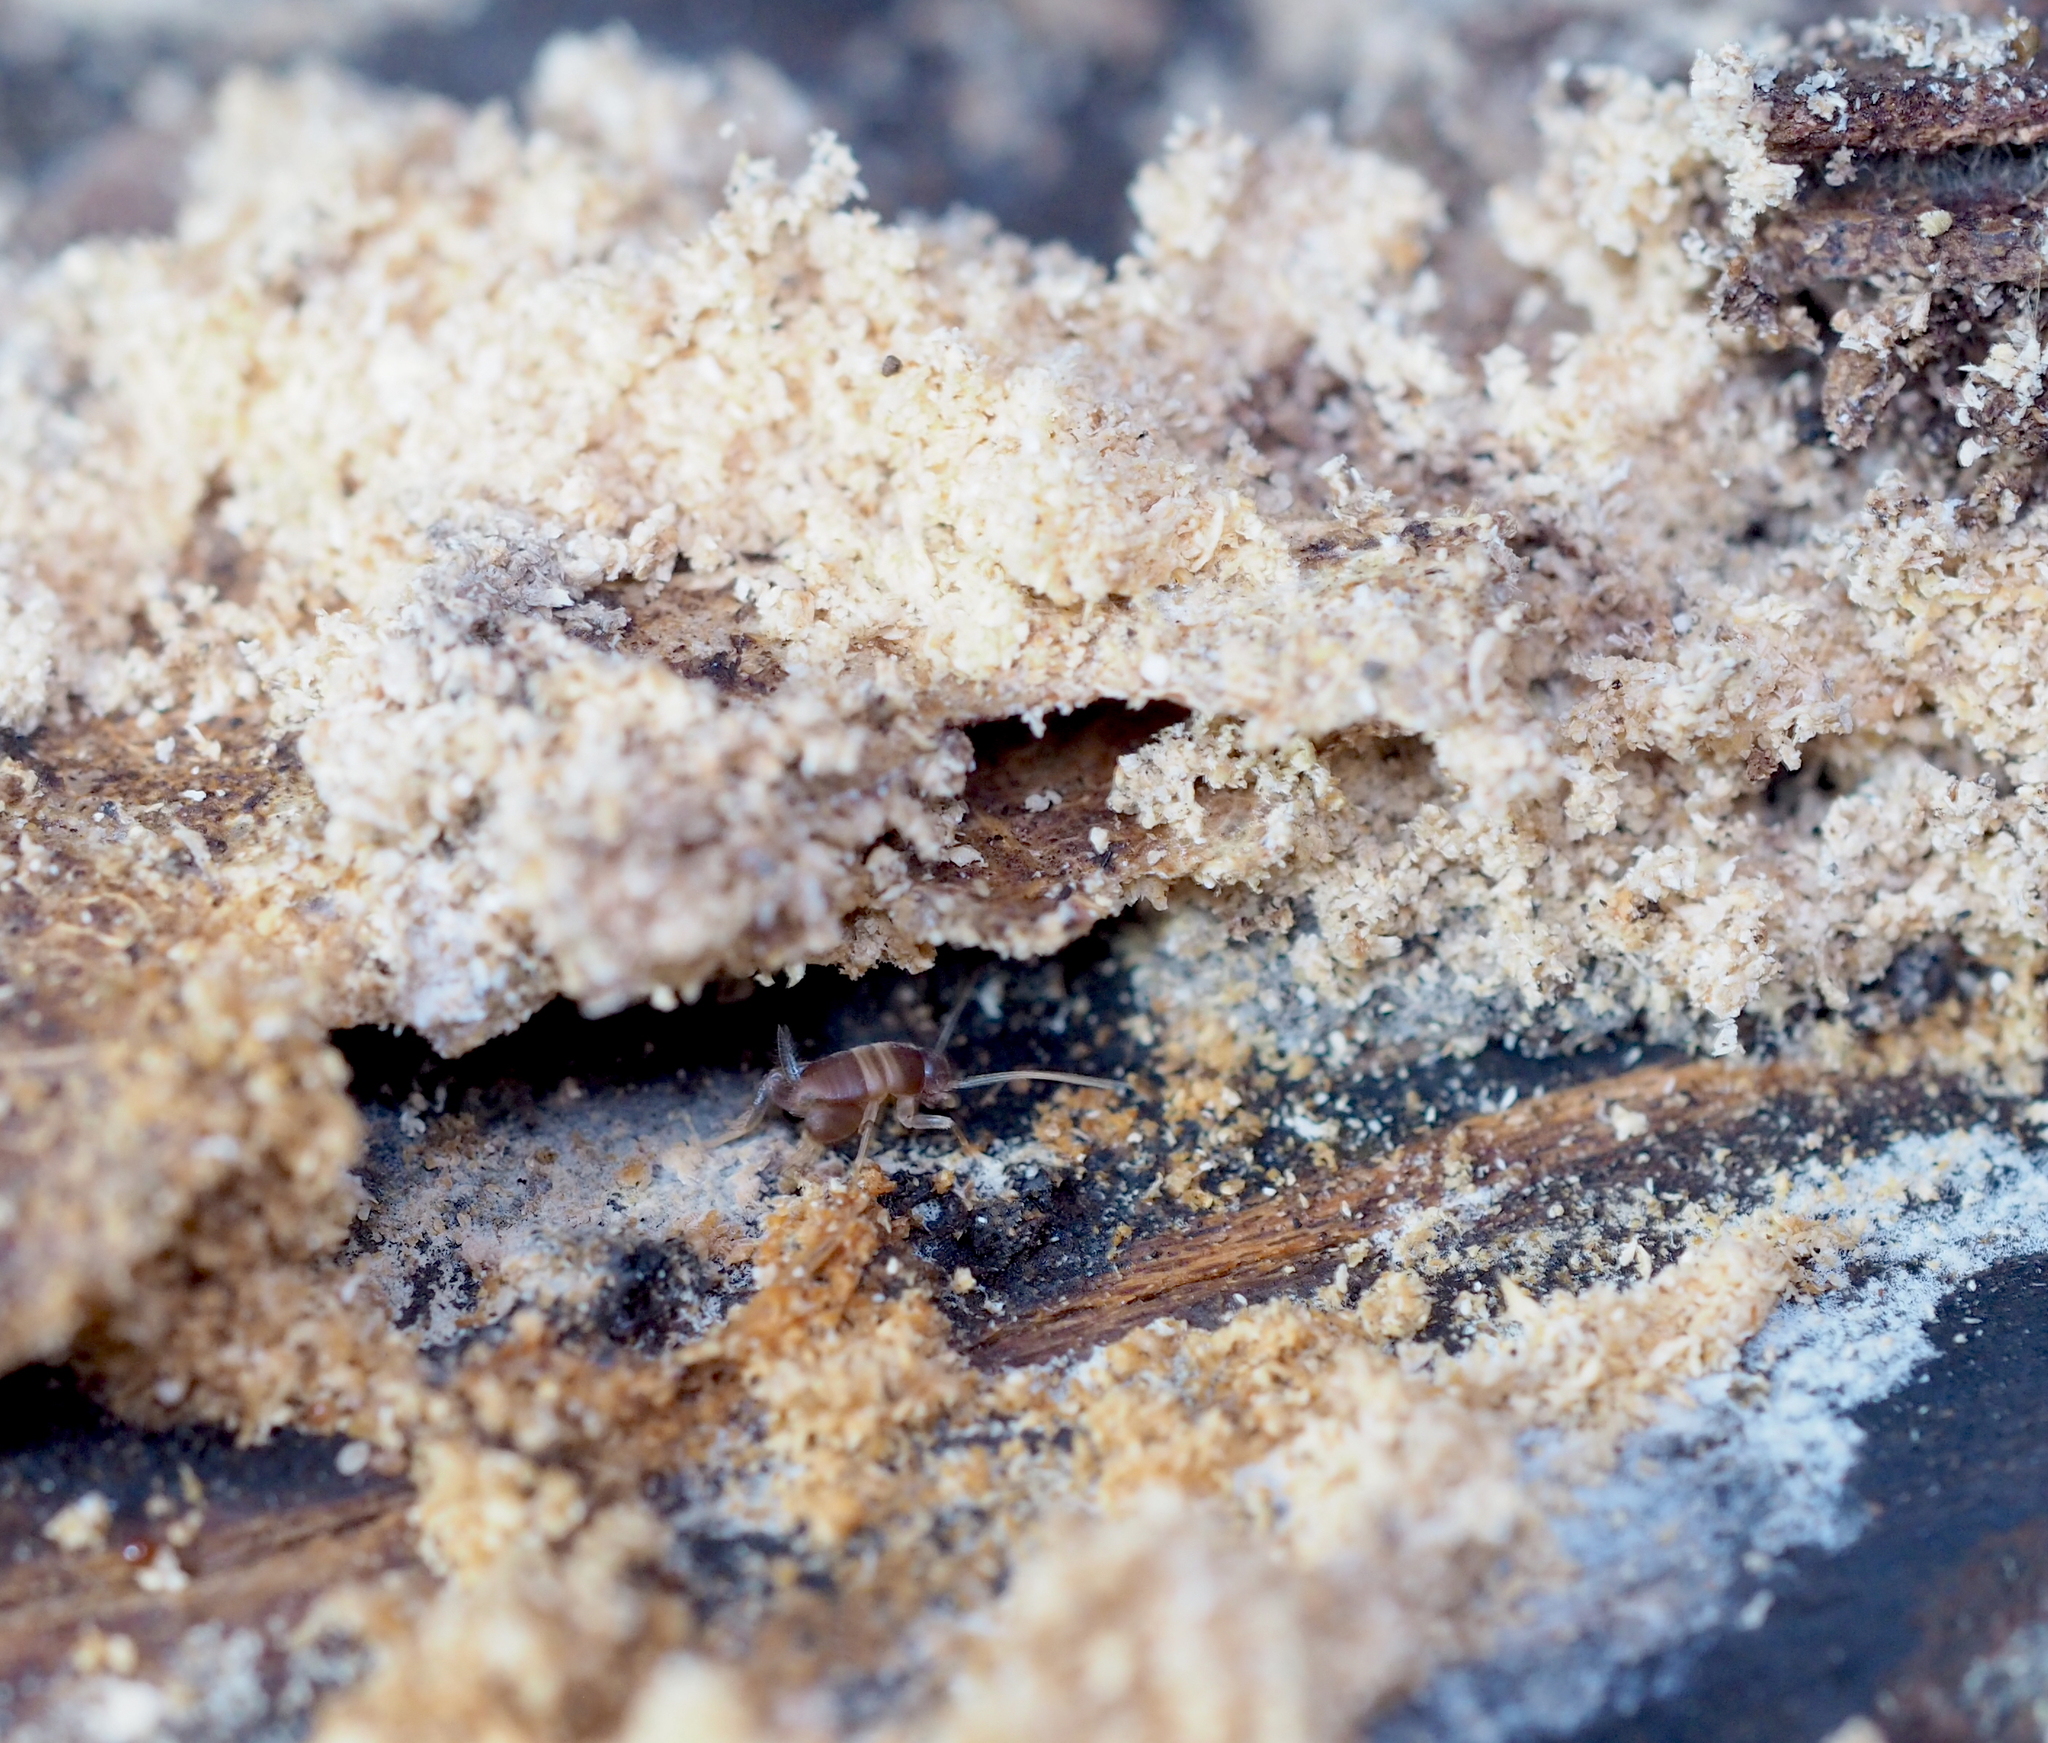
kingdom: Animalia
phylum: Arthropoda
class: Insecta
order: Orthoptera
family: Myrmecophilidae
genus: Myrmecophilus
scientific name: Myrmecophilus acervorum
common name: Ants-nest cricket
